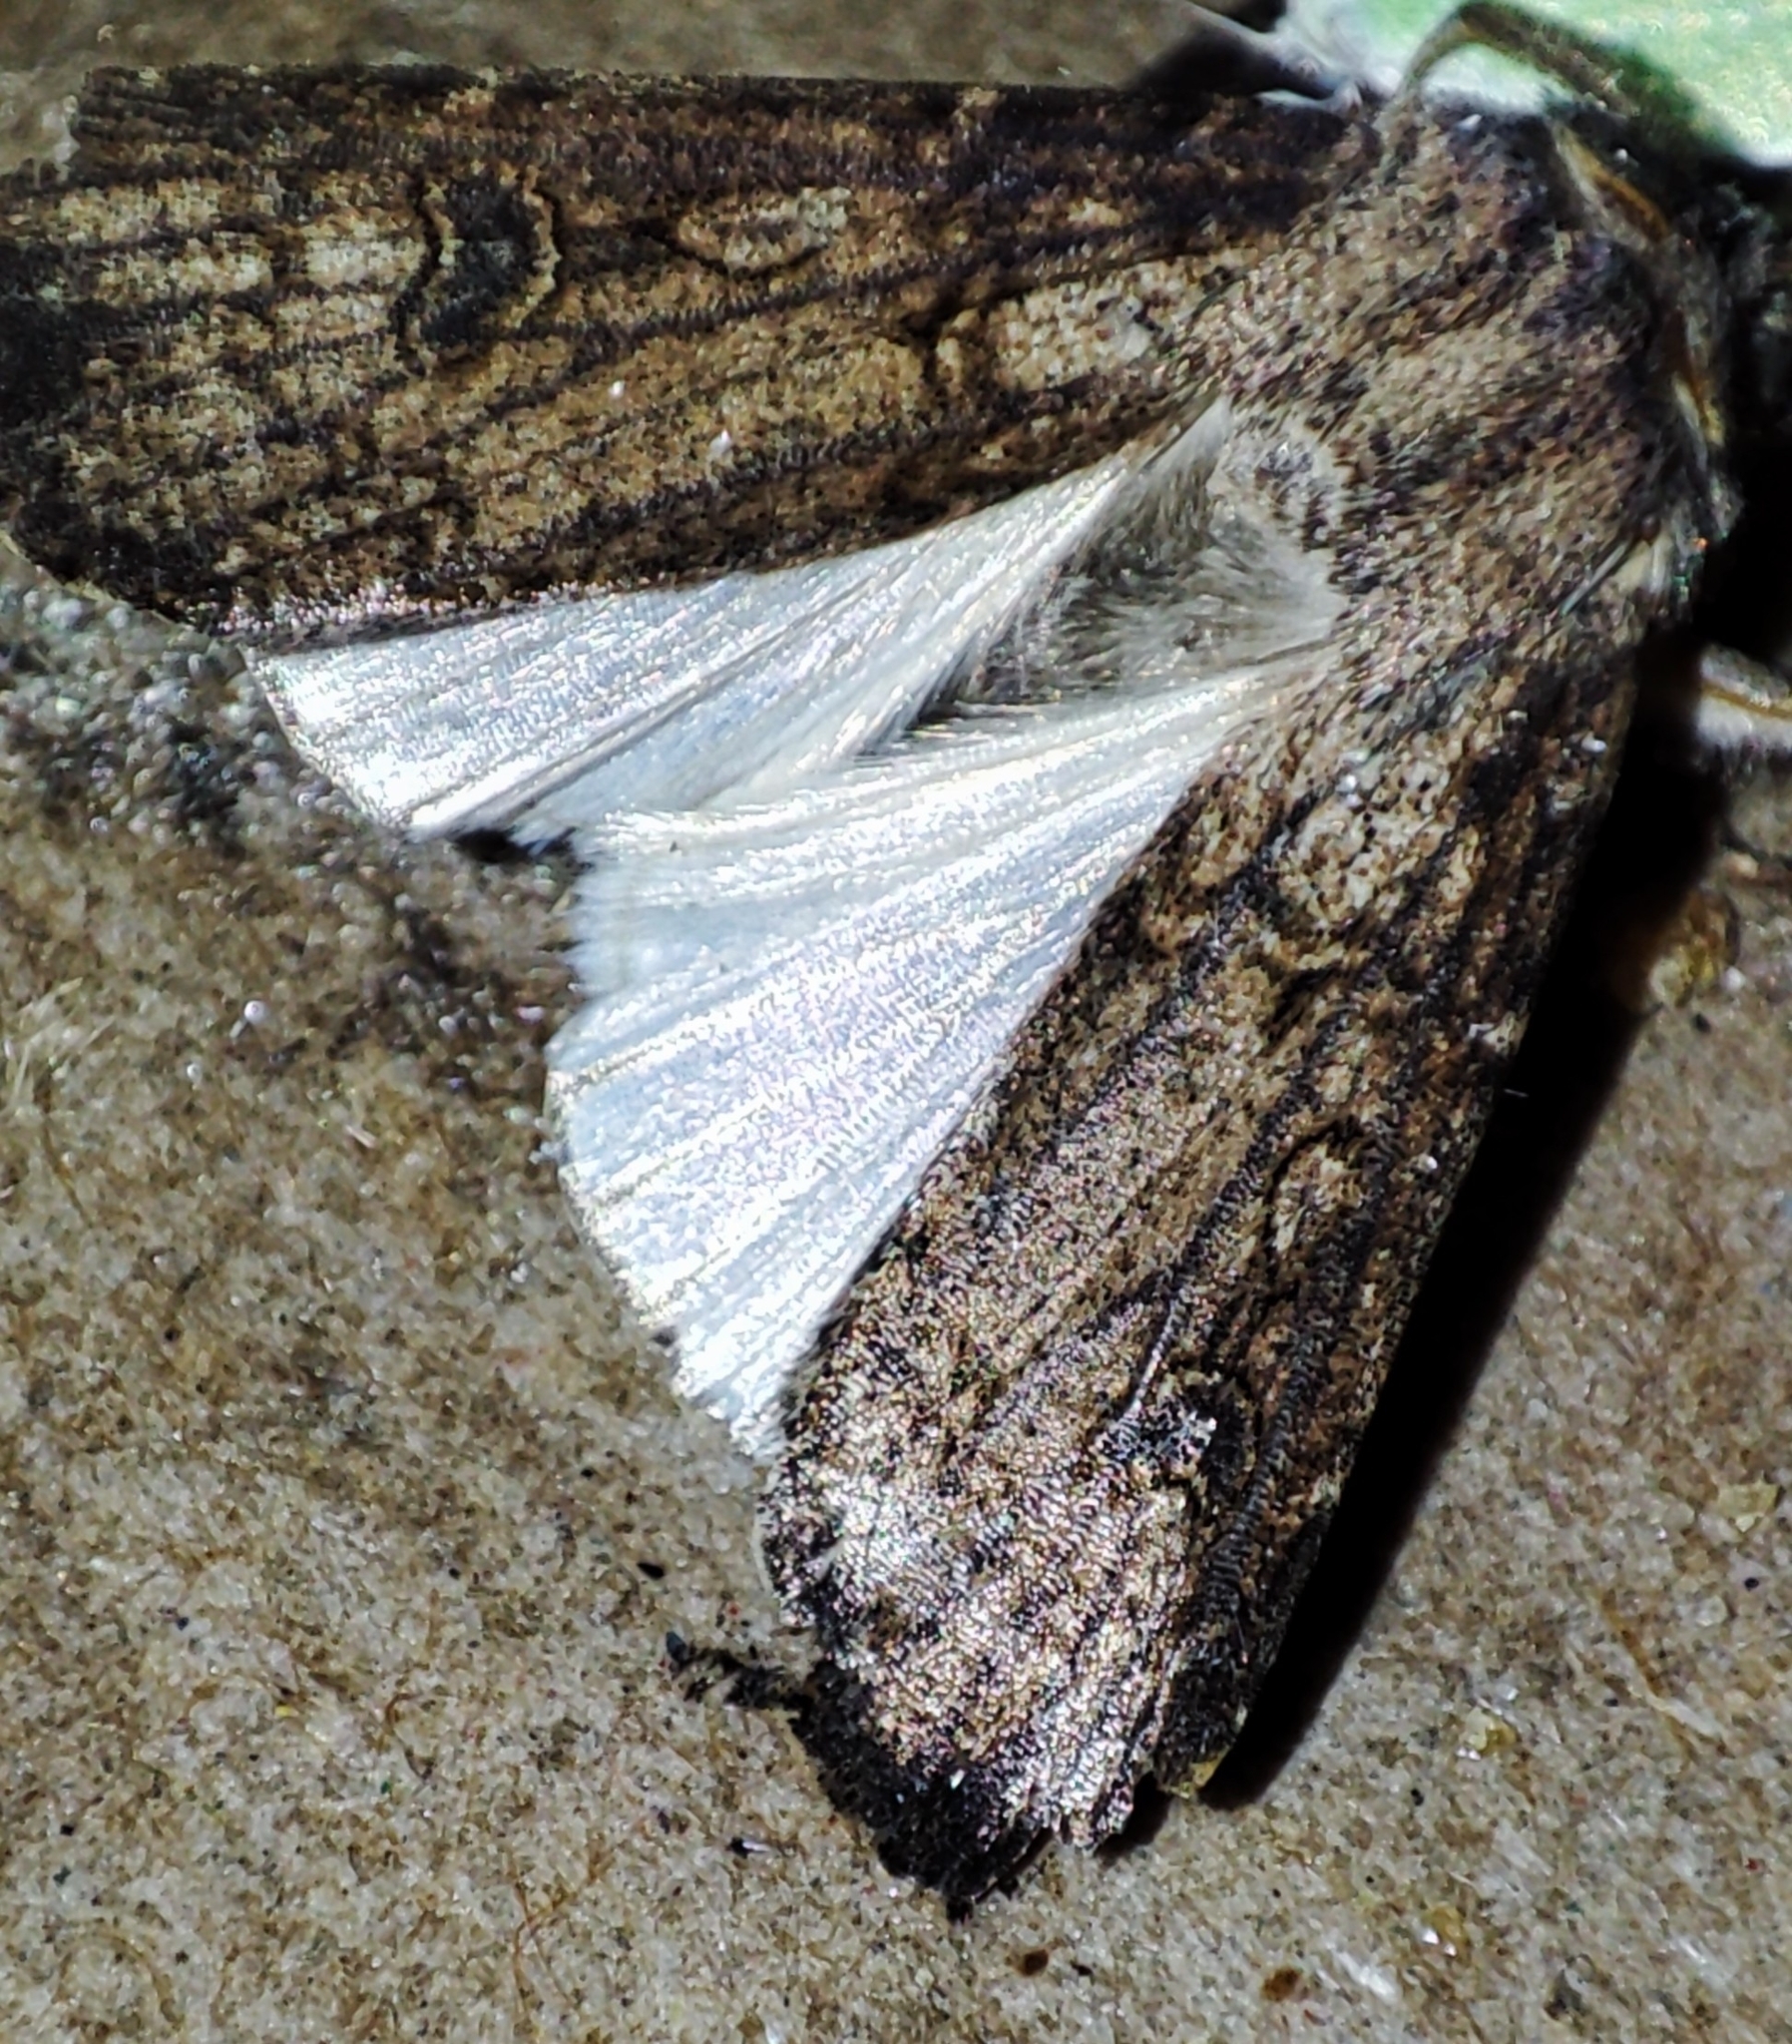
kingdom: Animalia
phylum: Arthropoda
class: Insecta
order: Lepidoptera
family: Noctuidae
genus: Agrotis
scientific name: Agrotis segetum
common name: Turnip moth
